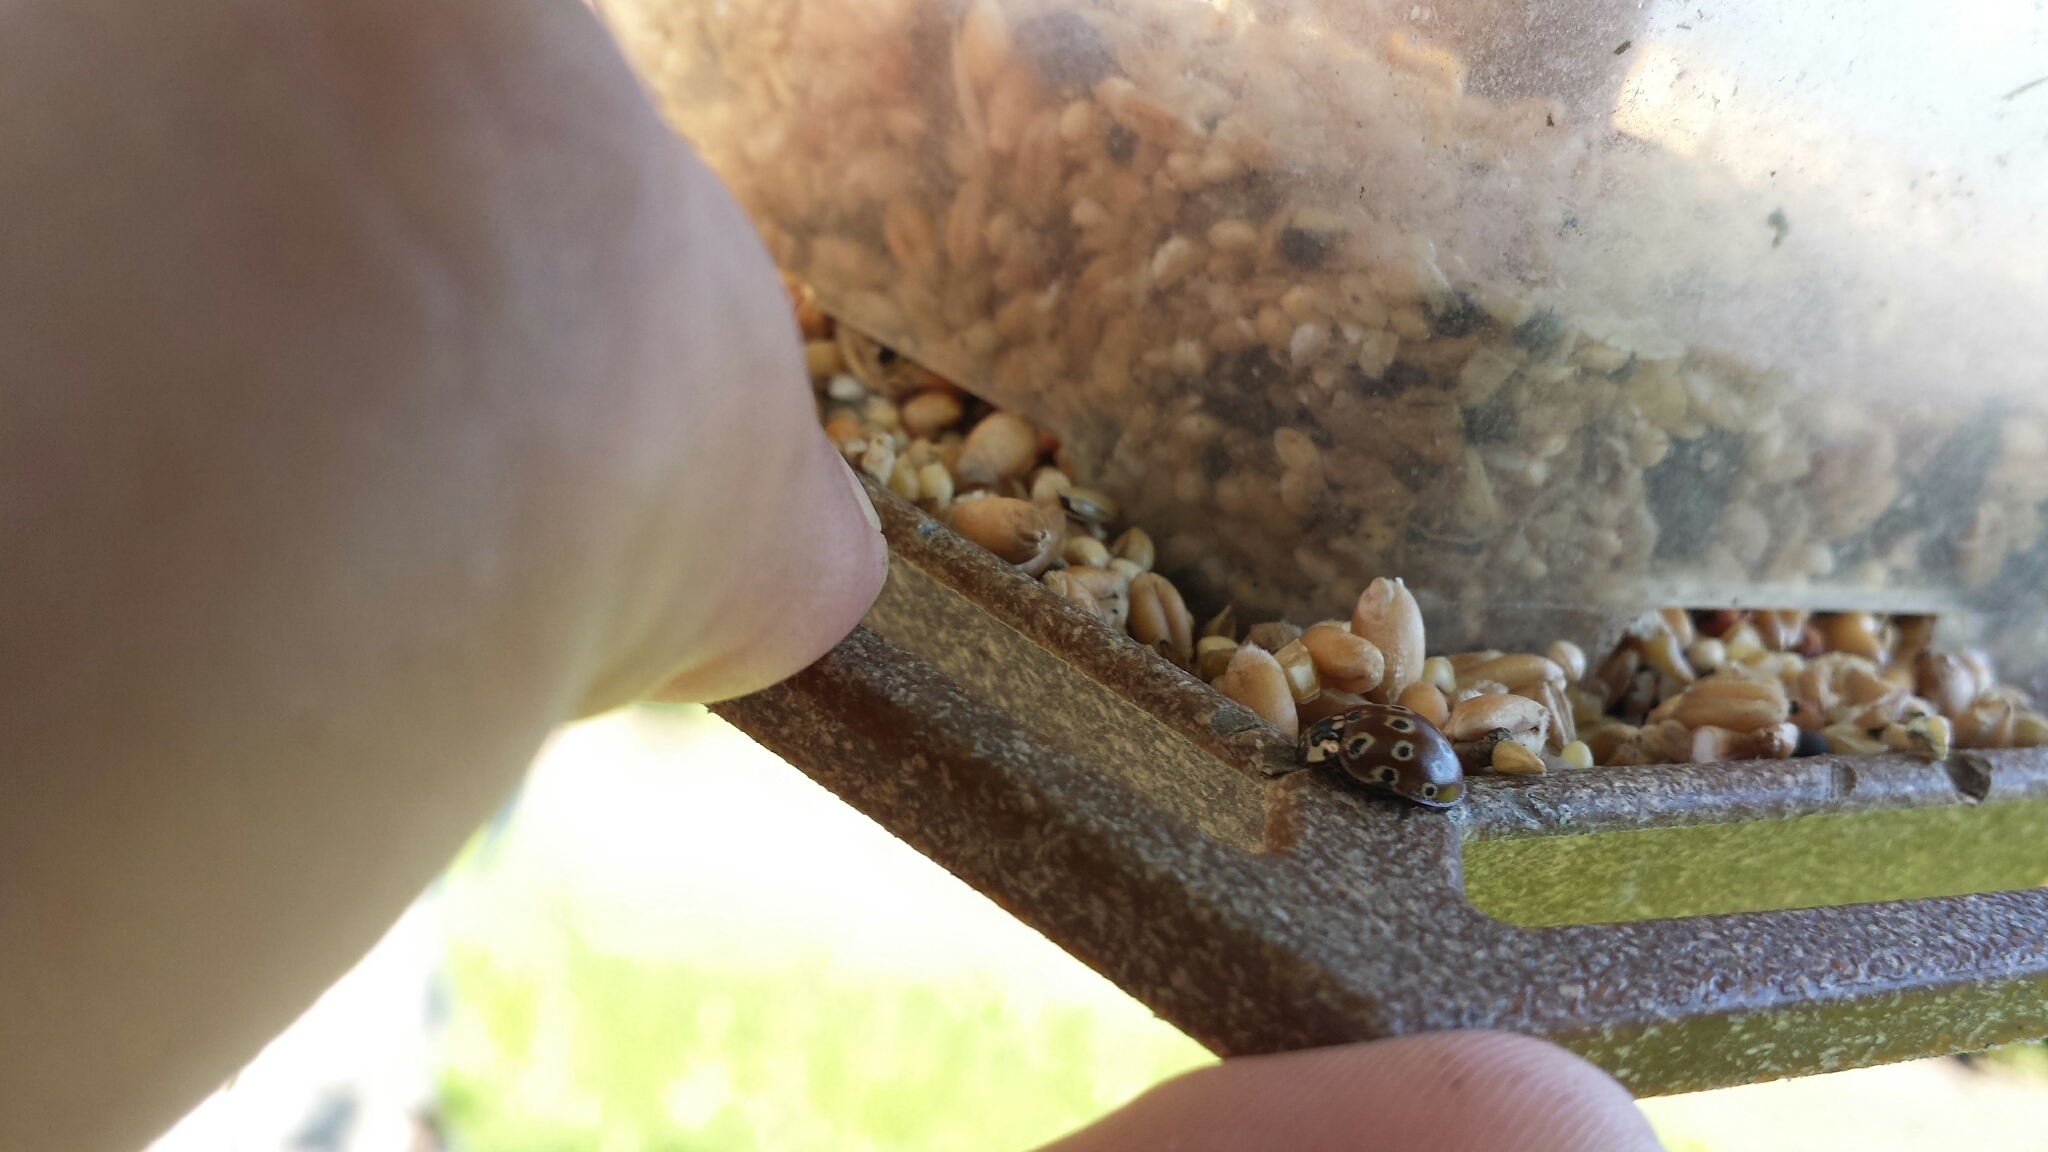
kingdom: Animalia
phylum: Arthropoda
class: Insecta
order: Coleoptera
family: Coccinellidae
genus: Anatis
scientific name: Anatis mali
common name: Eye-spotted lady beetle
